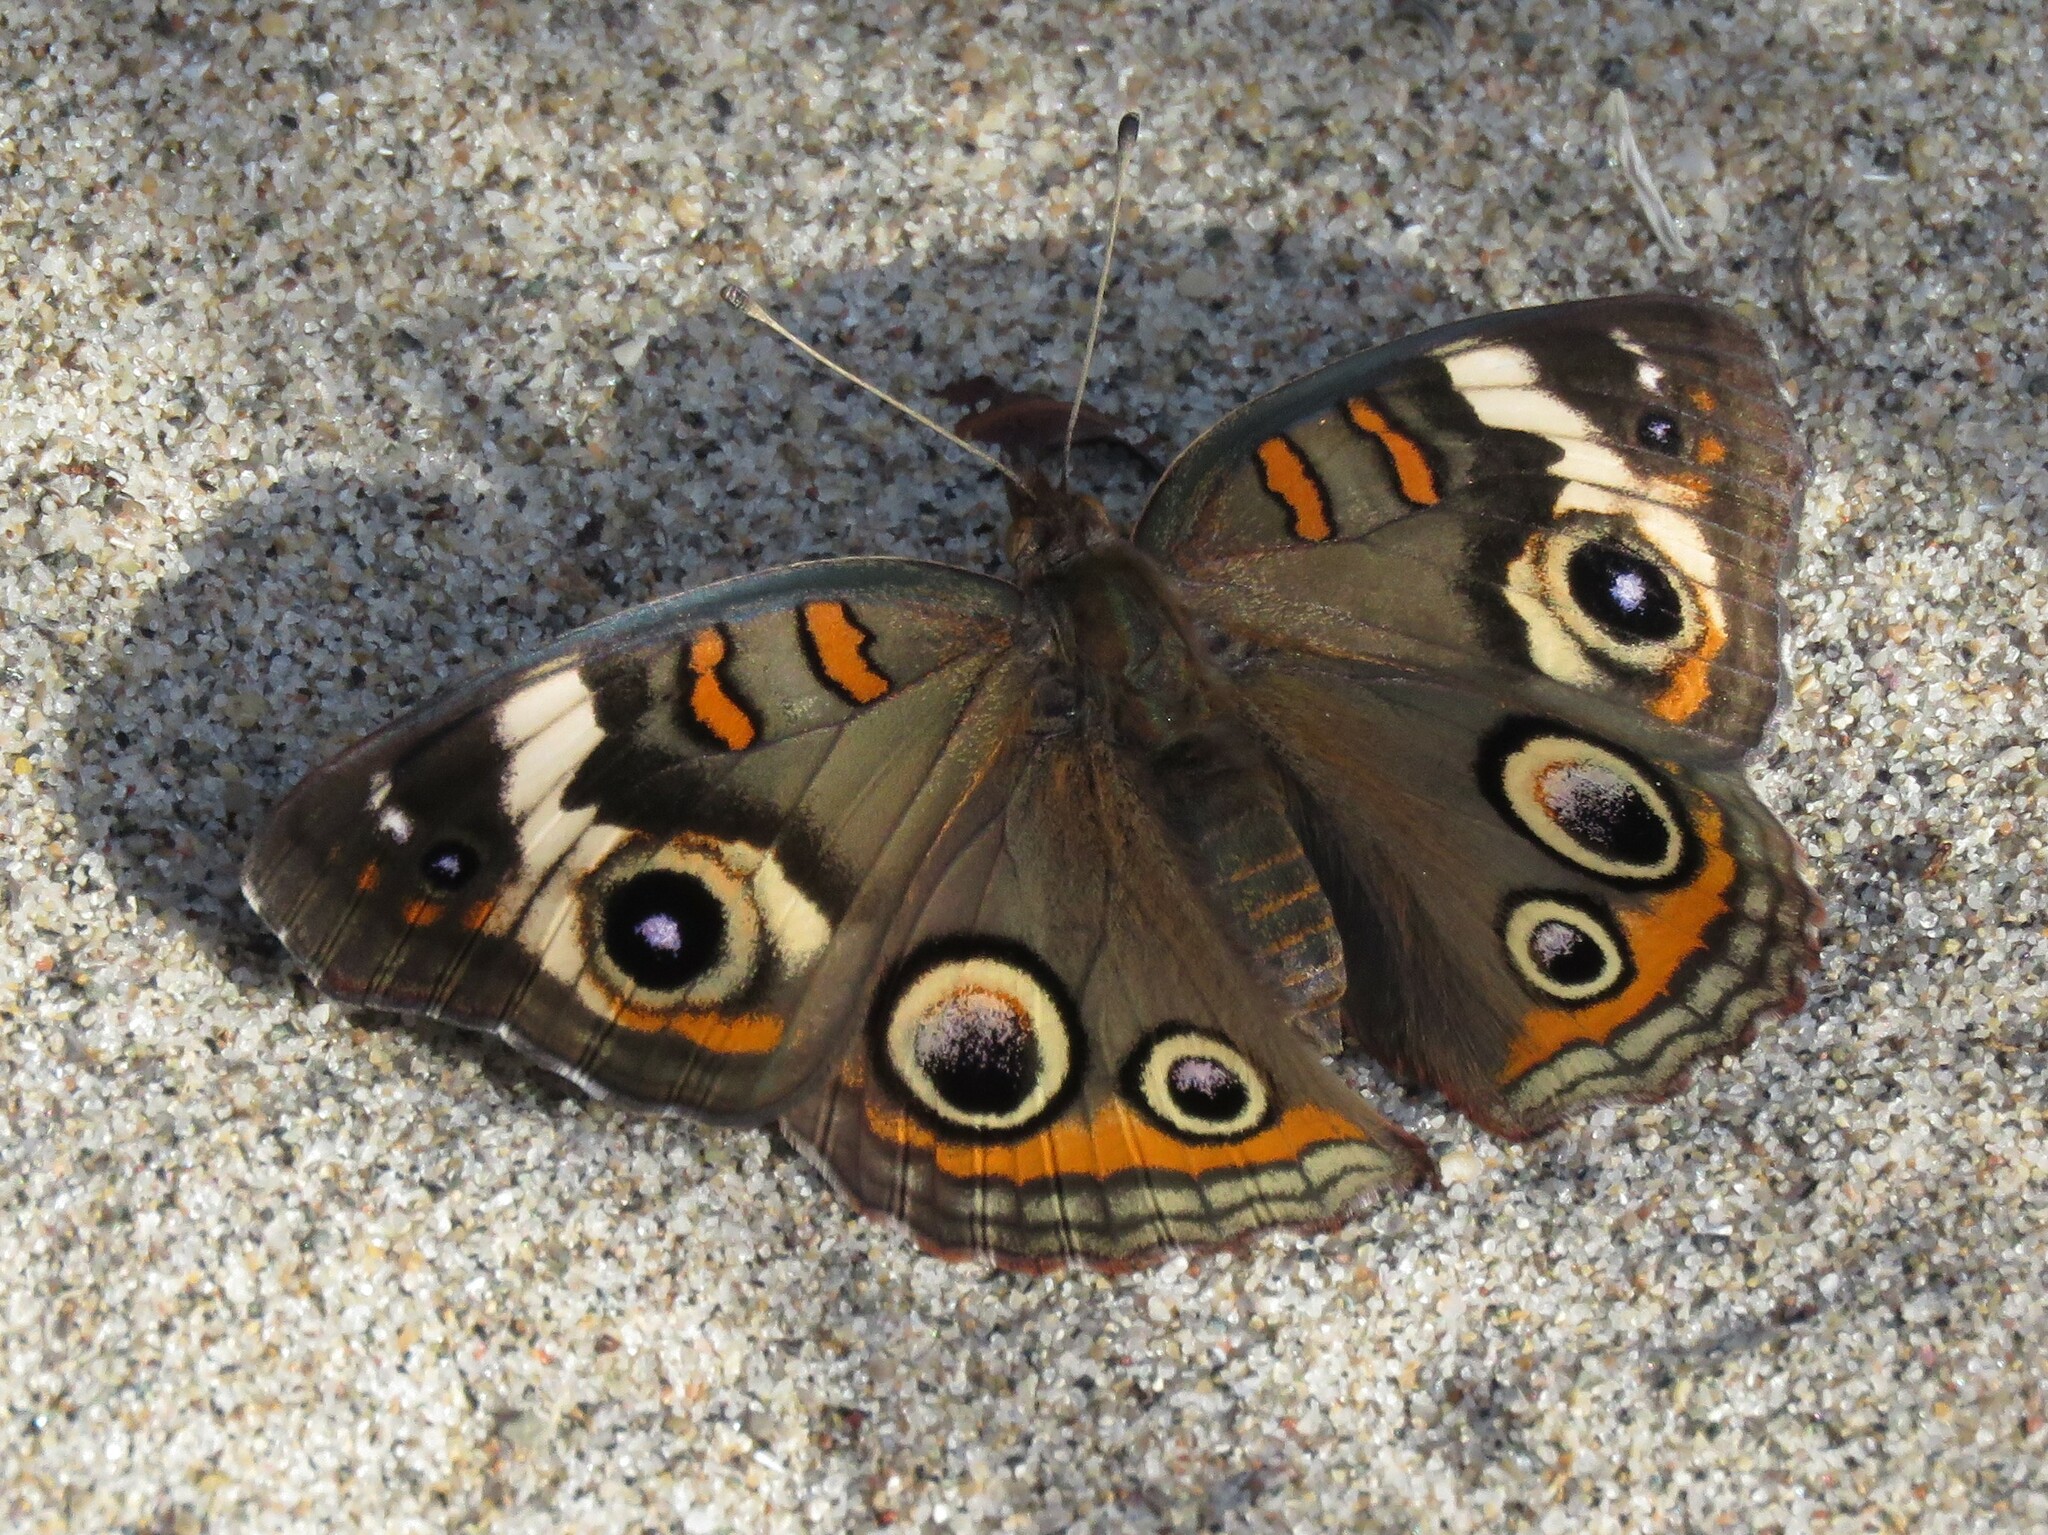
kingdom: Animalia
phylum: Arthropoda
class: Insecta
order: Lepidoptera
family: Nymphalidae
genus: Junonia
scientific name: Junonia coenia
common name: Common buckeye
